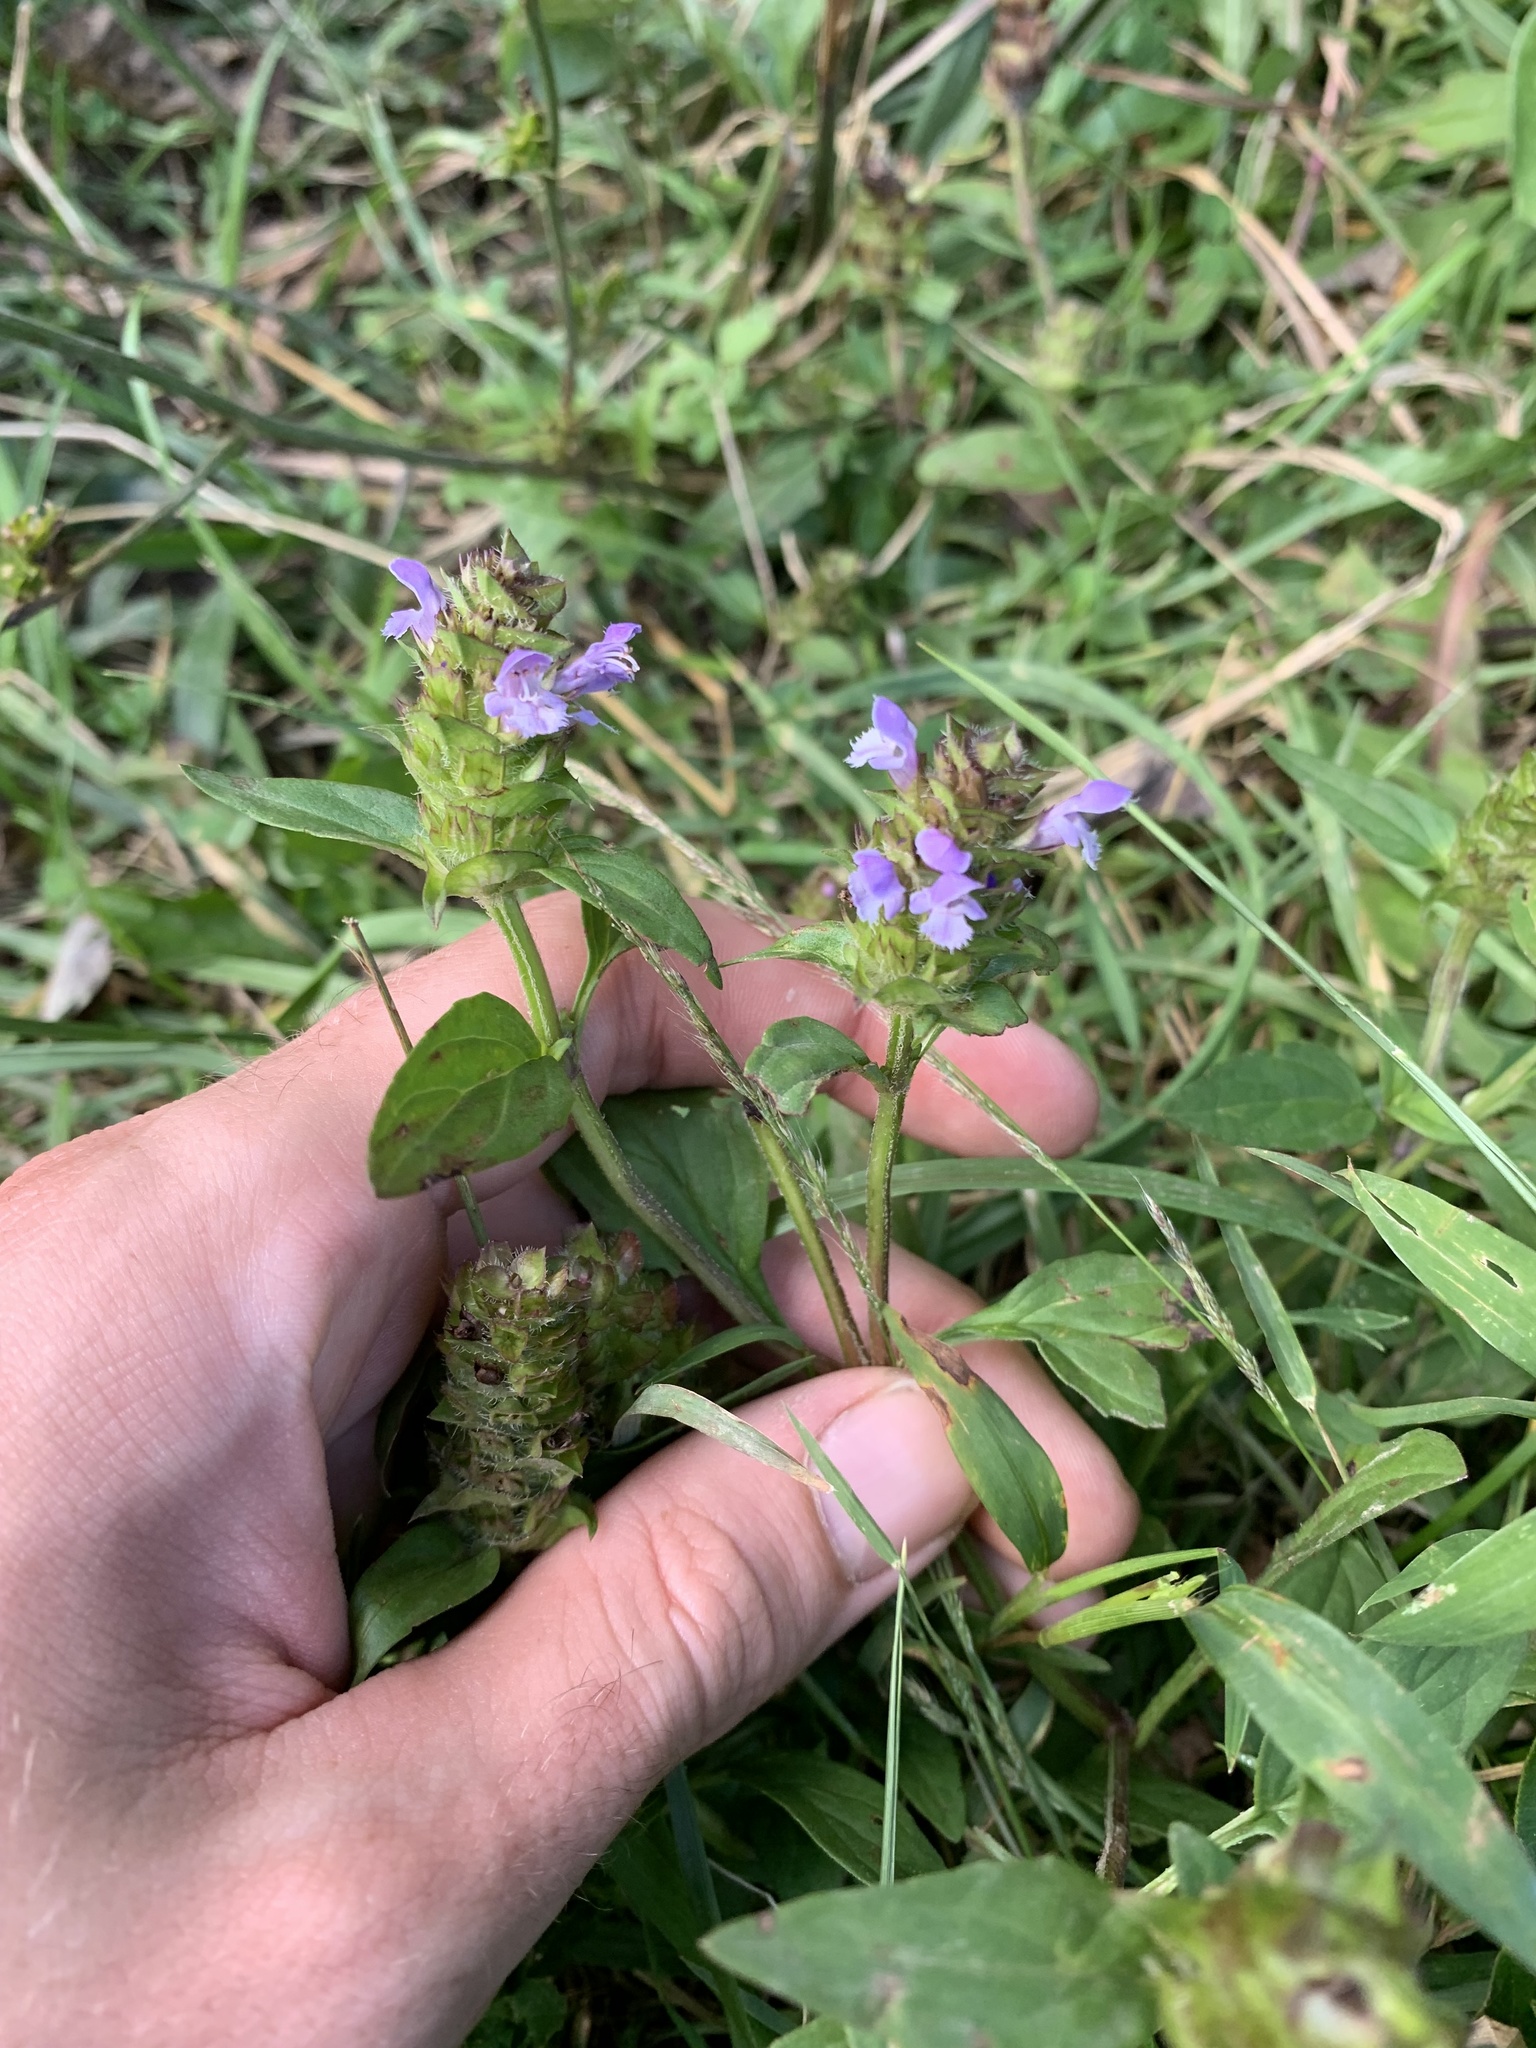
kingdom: Plantae
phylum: Tracheophyta
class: Magnoliopsida
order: Lamiales
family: Lamiaceae
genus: Prunella
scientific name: Prunella vulgaris
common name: Heal-all
